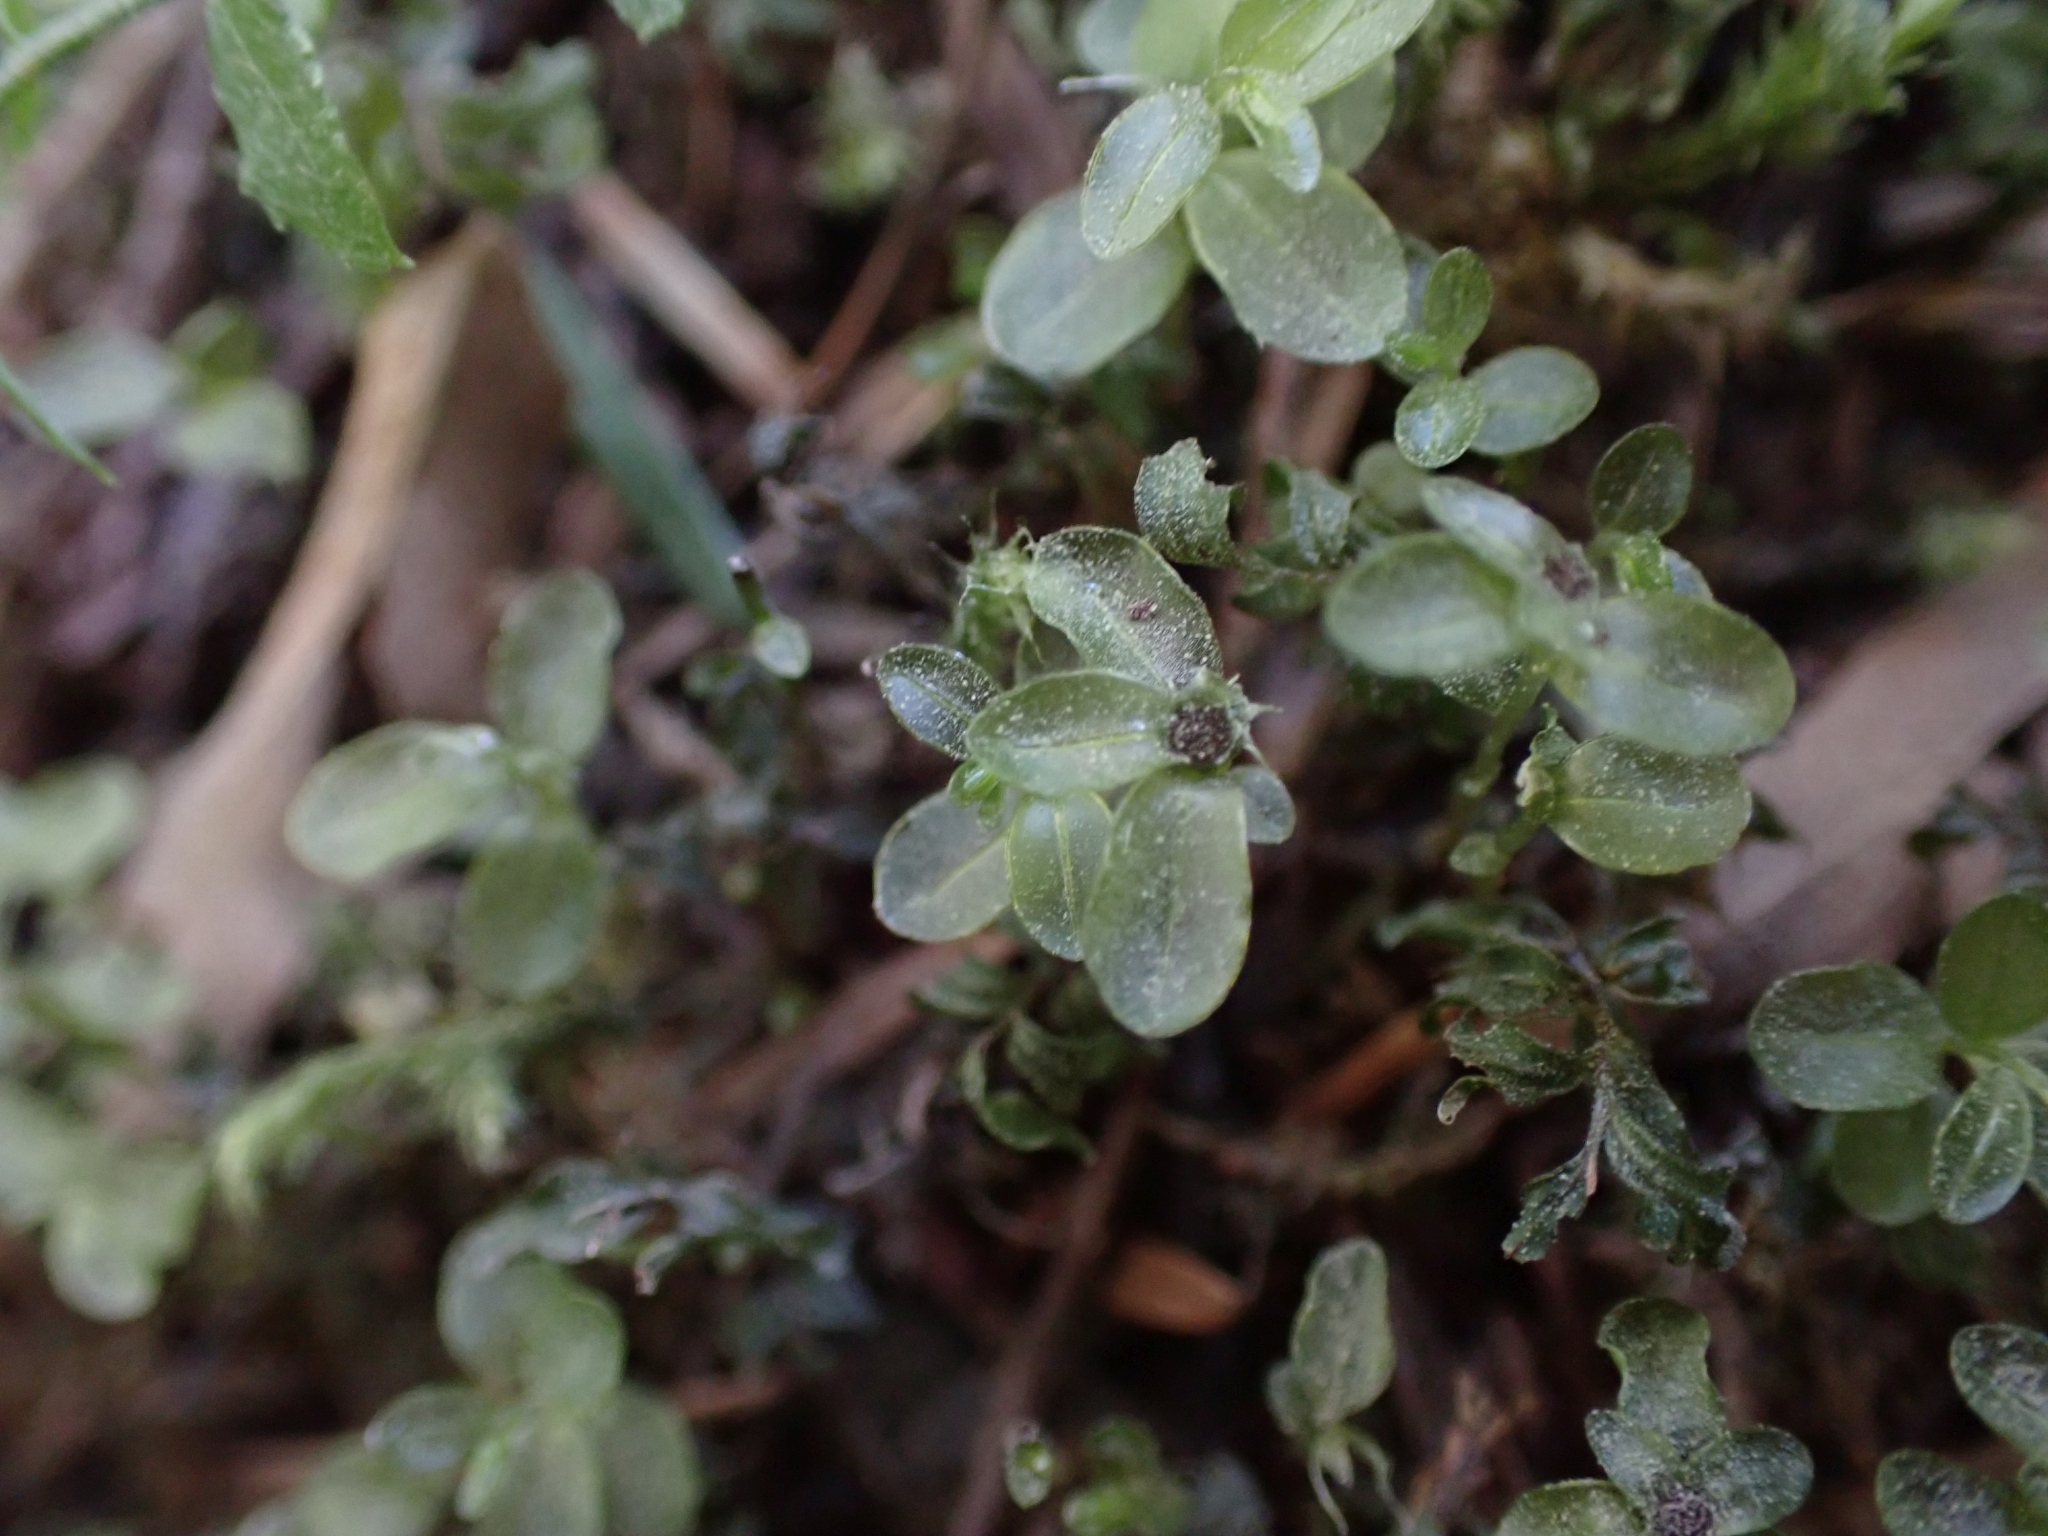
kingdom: Plantae
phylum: Bryophyta
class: Bryopsida
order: Bryales
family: Mniaceae
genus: Rhizomnium
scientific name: Rhizomnium glabrescens
